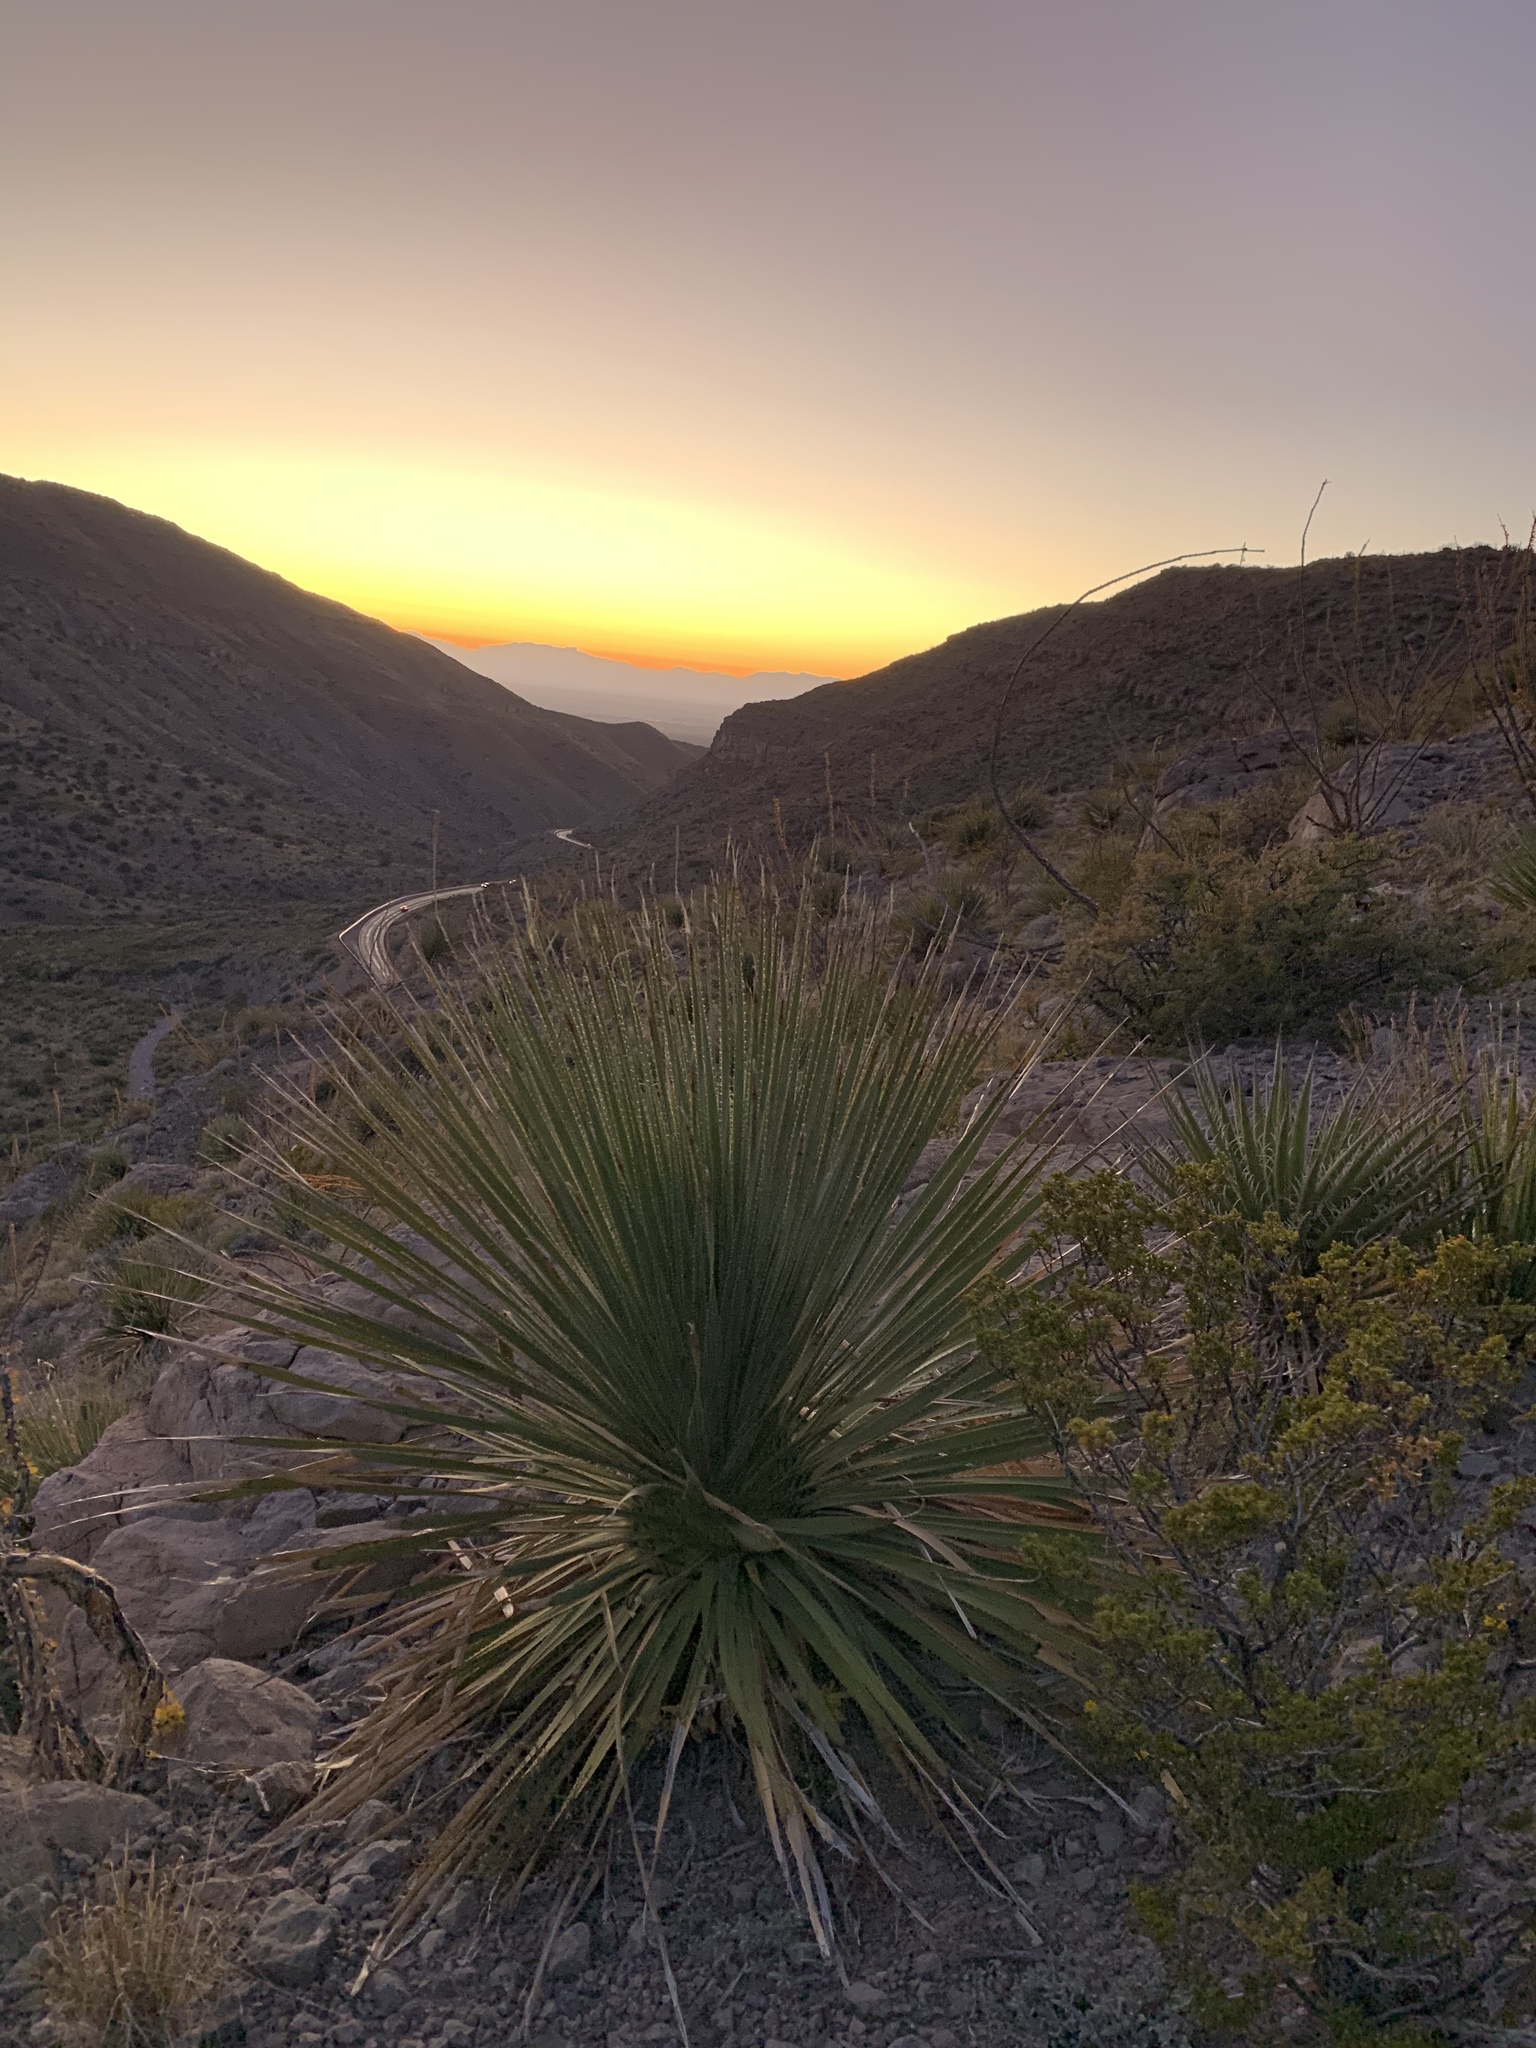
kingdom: Plantae
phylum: Tracheophyta
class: Liliopsida
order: Asparagales
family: Asparagaceae
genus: Dasylirion
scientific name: Dasylirion wheeleri
